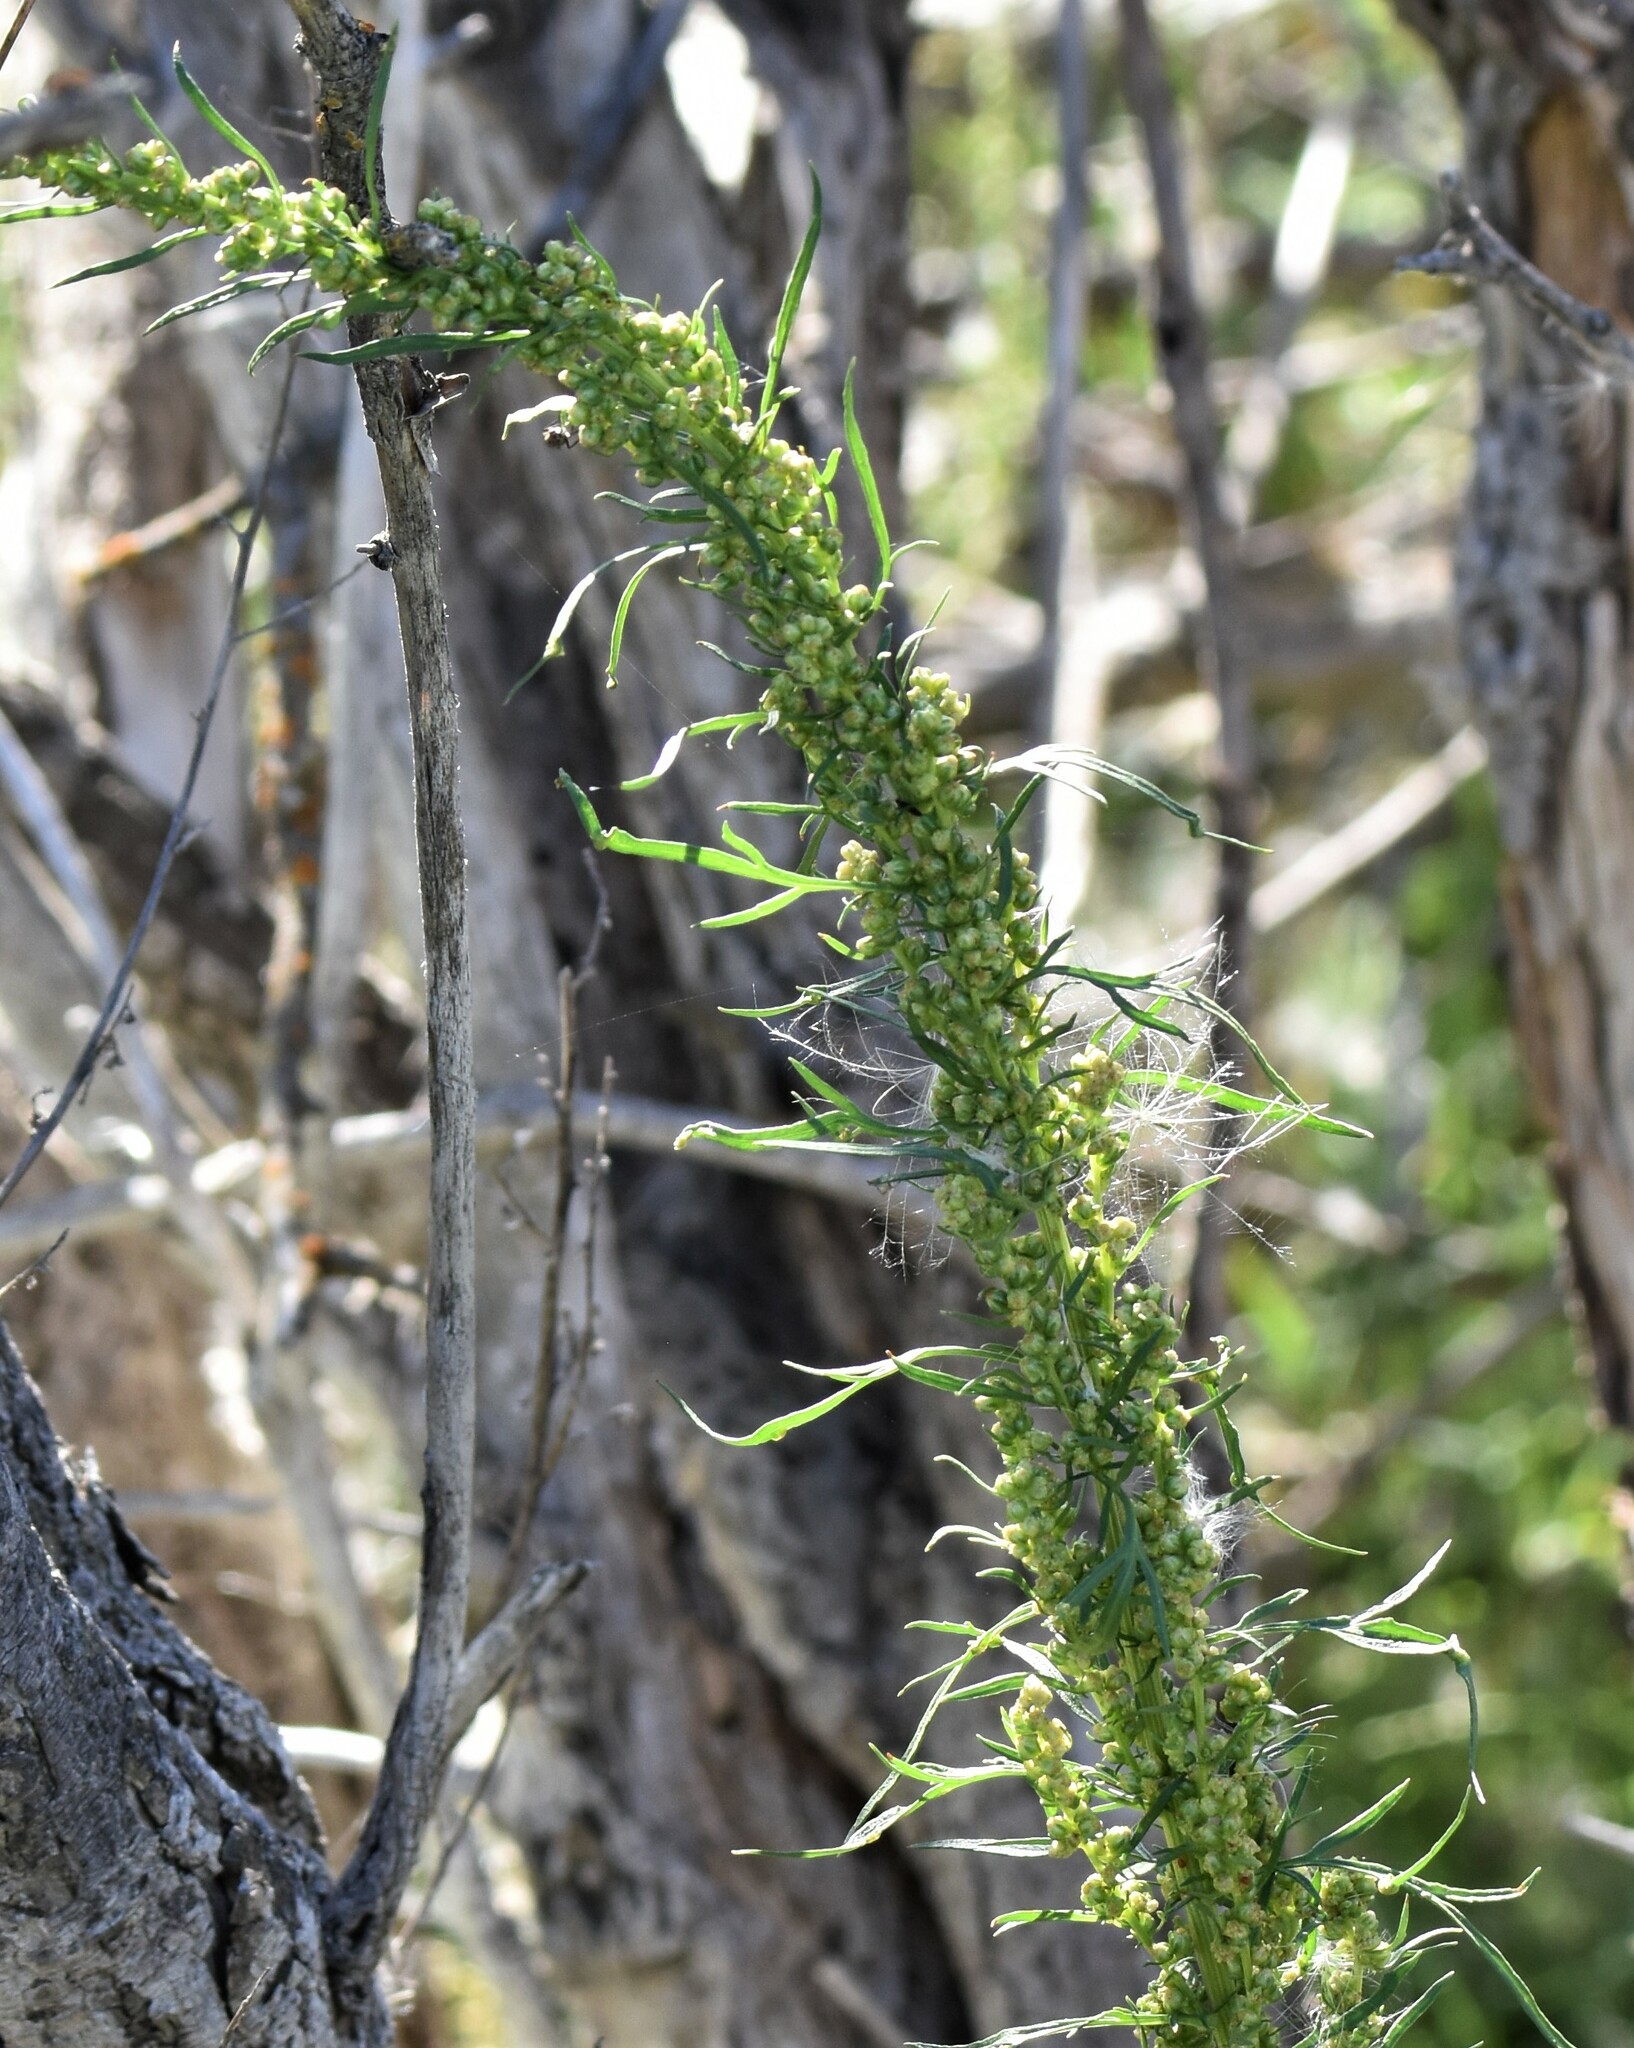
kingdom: Plantae
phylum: Tracheophyta
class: Magnoliopsida
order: Asterales
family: Asteraceae
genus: Artemisia
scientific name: Artemisia biennis
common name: Biennial wormwood
